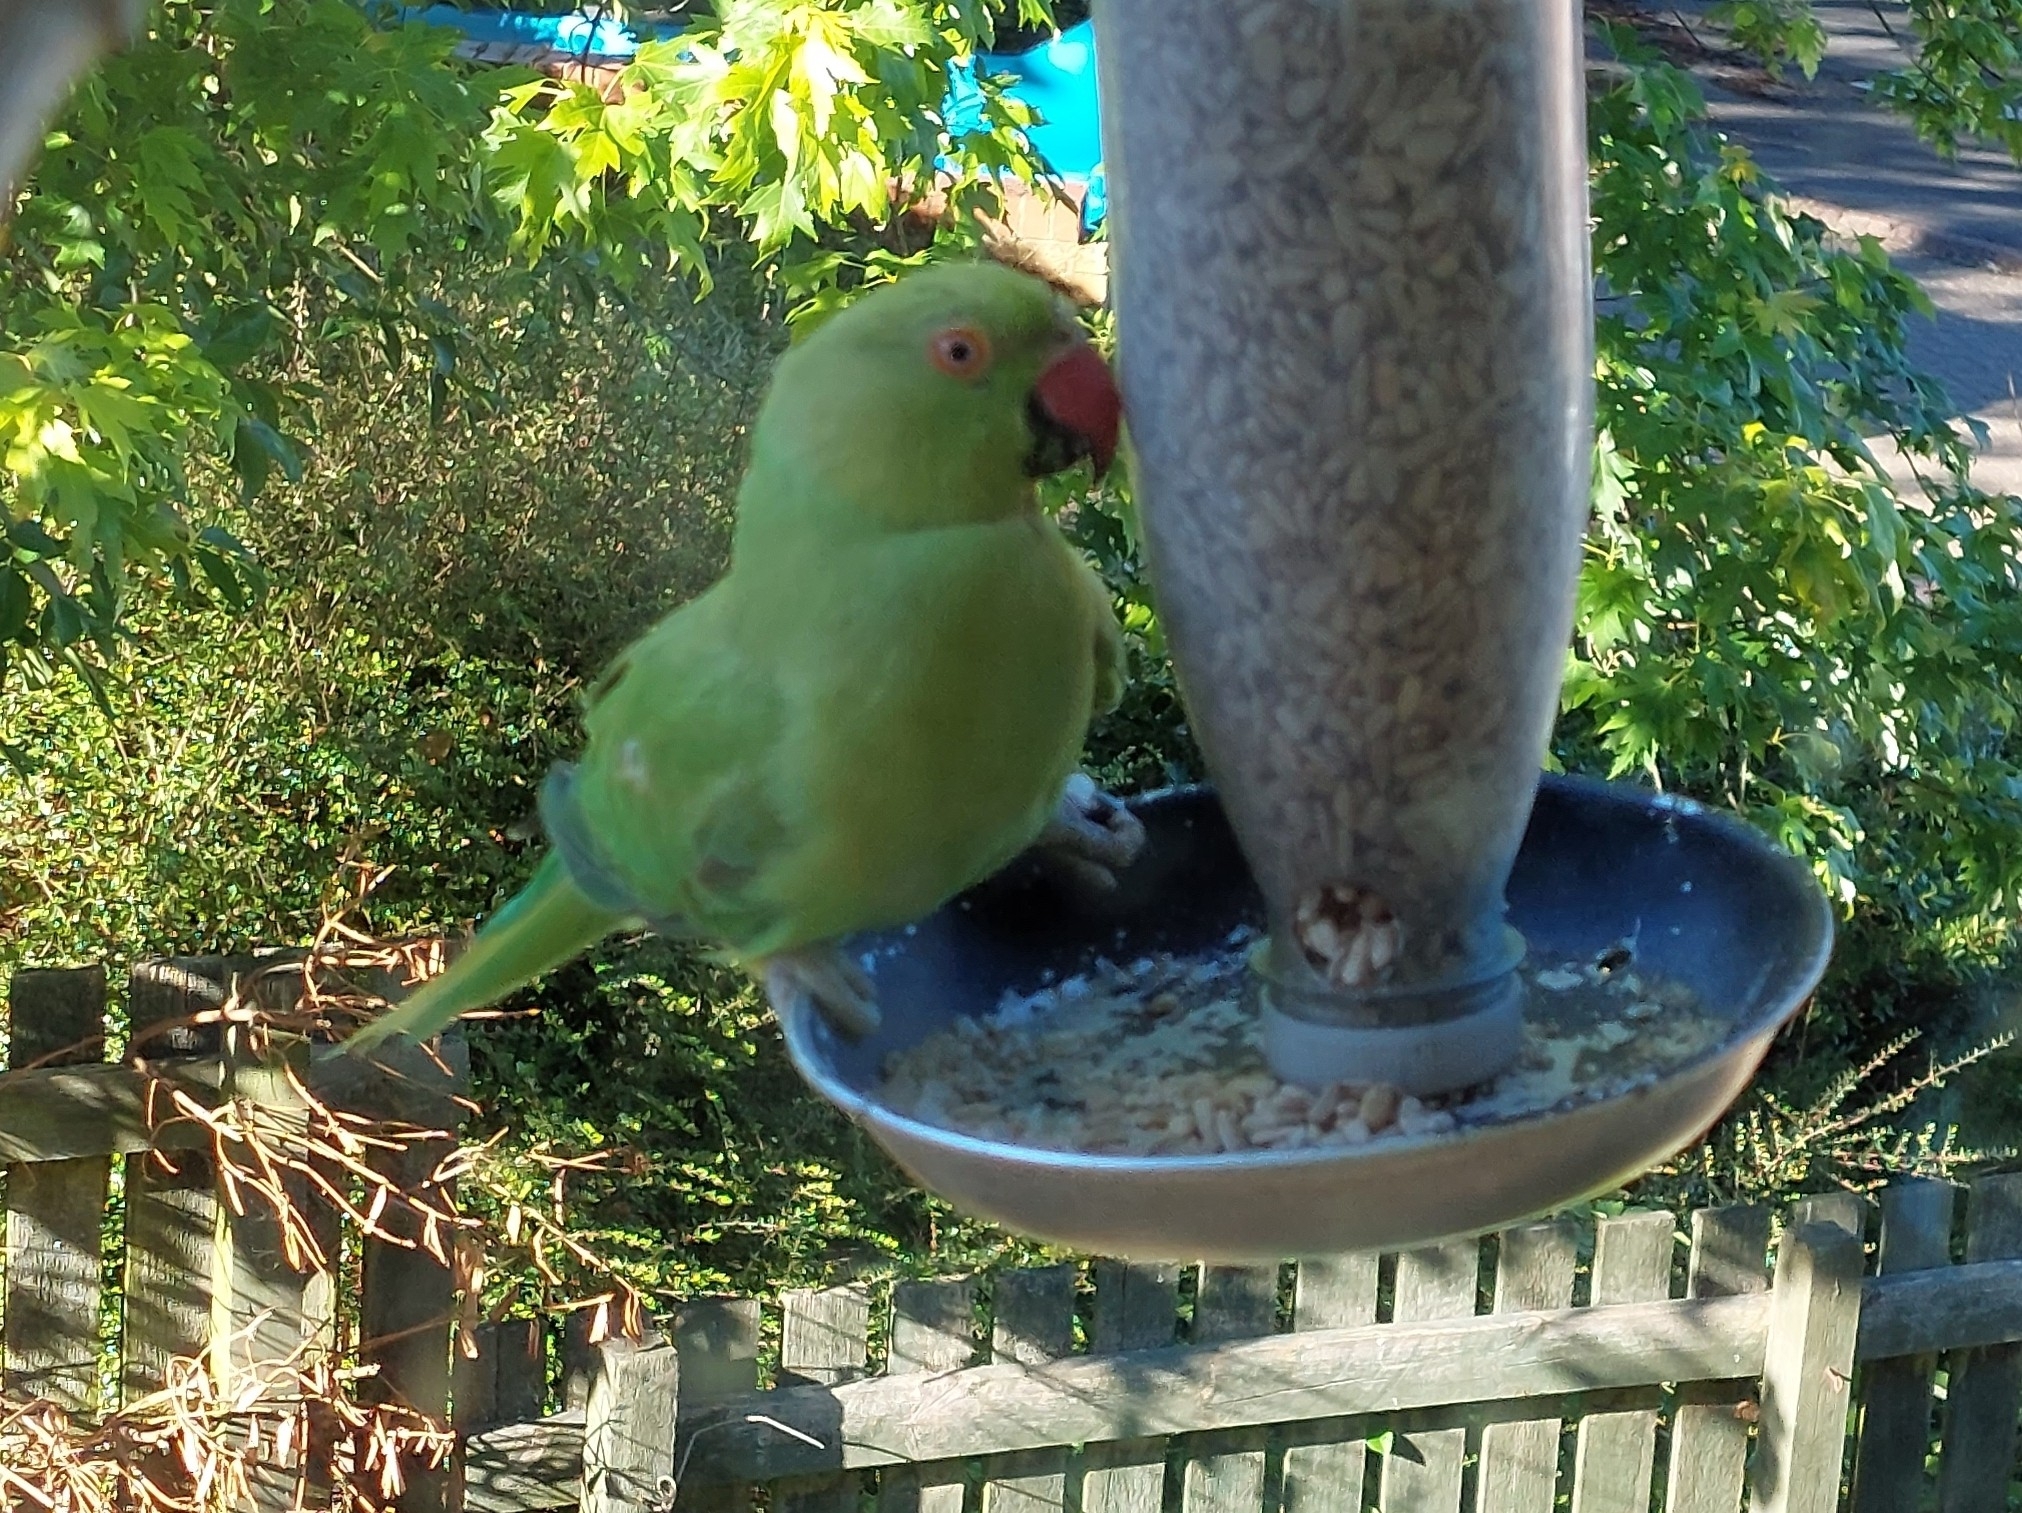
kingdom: Animalia
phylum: Chordata
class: Aves
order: Psittaciformes
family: Psittacidae
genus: Psittacula
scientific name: Psittacula krameri
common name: Rose-ringed parakeet
